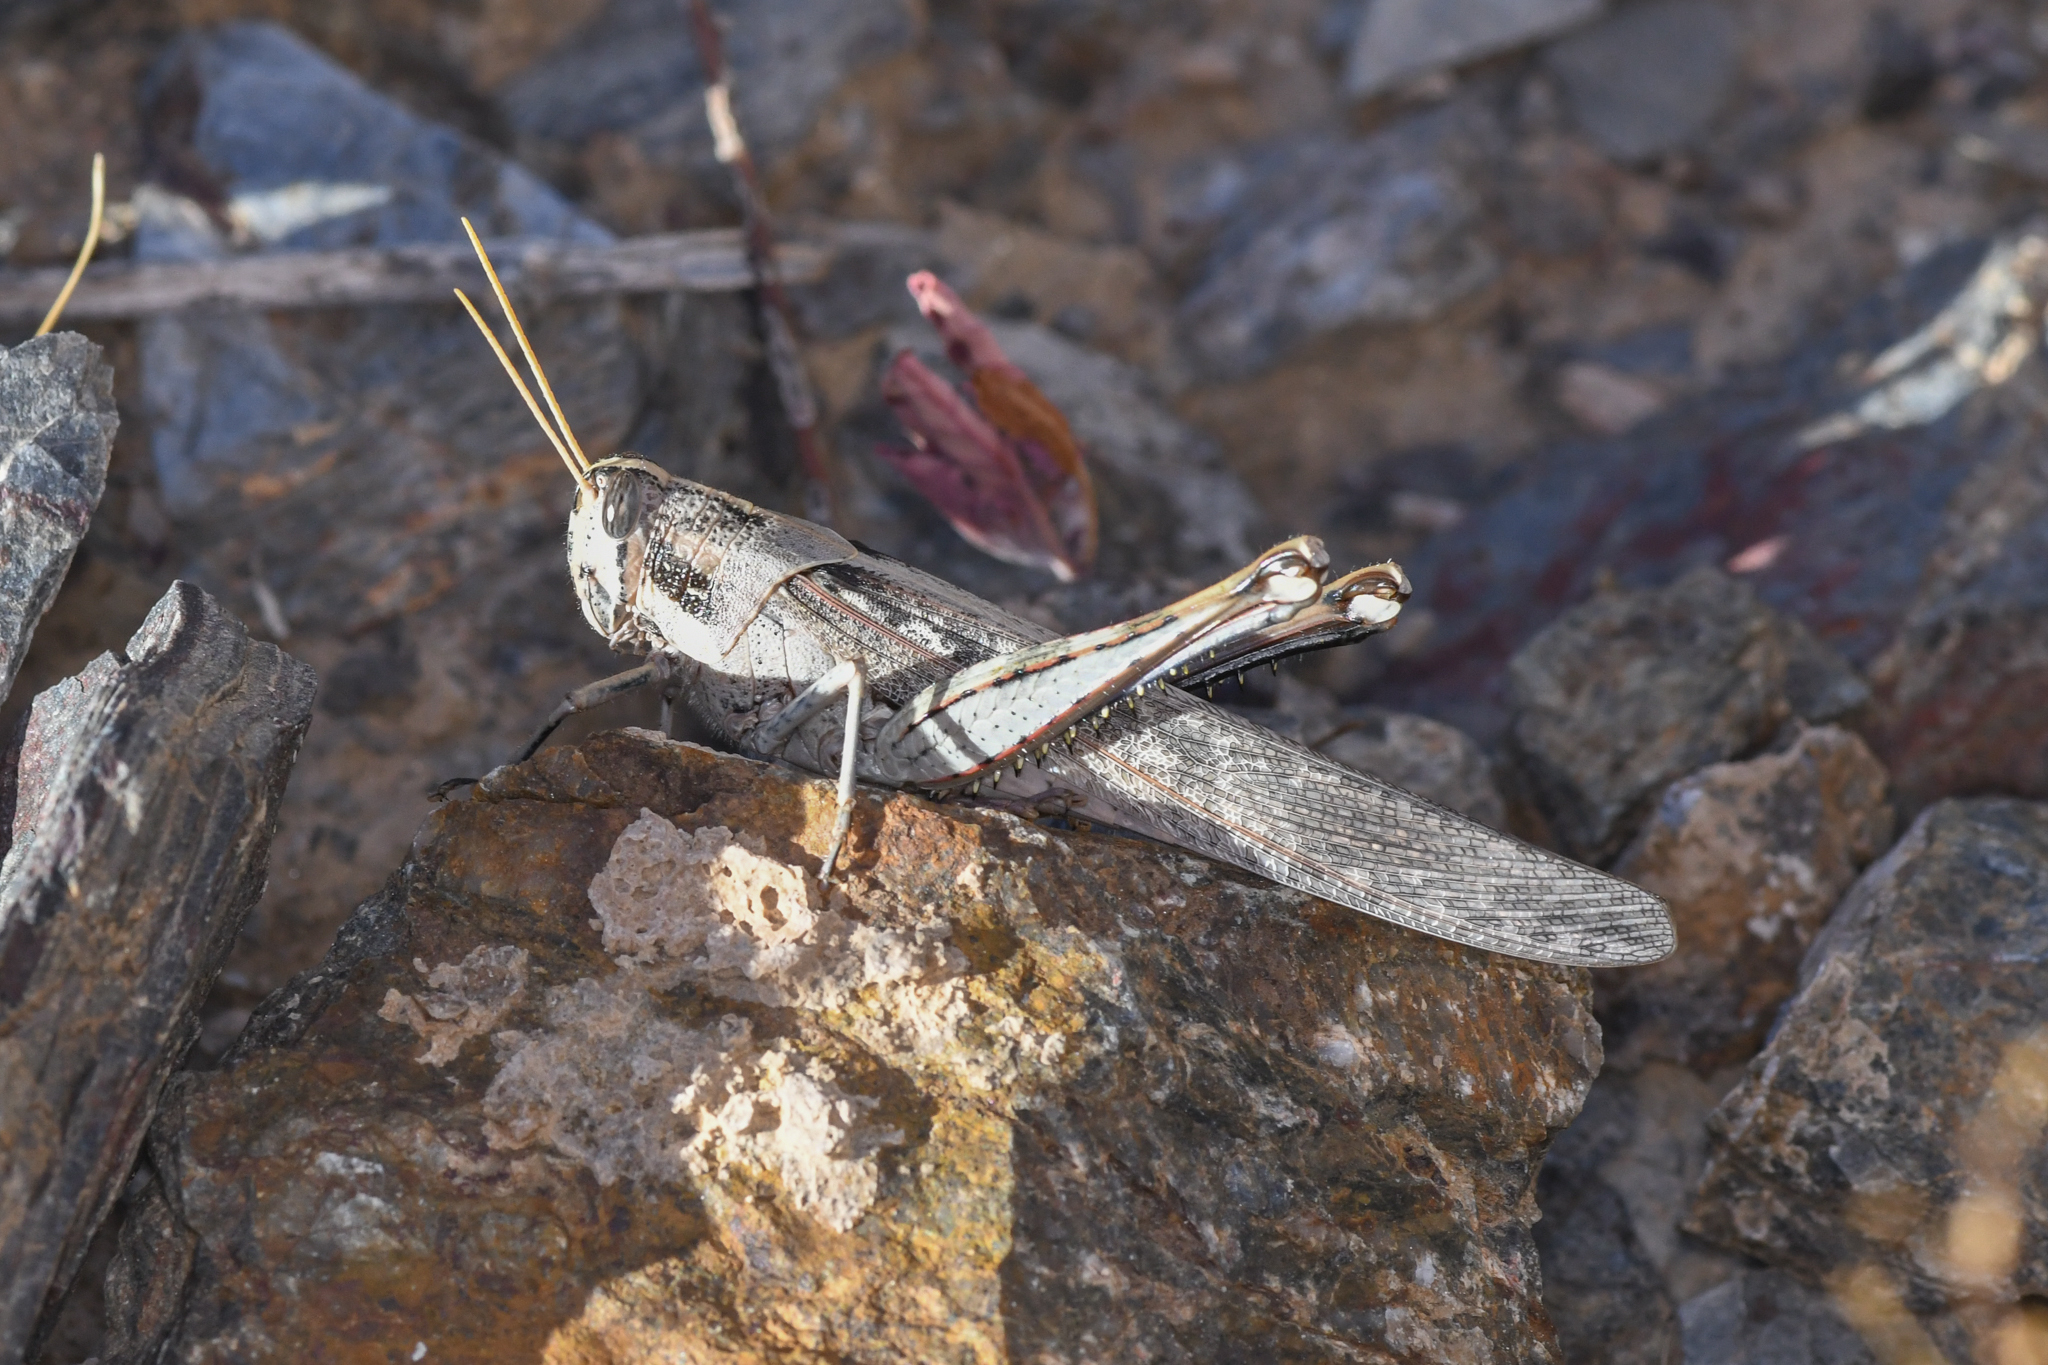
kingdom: Animalia
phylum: Arthropoda
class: Insecta
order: Orthoptera
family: Acrididae
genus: Schistocerca
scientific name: Schistocerca nitens
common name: Vagrant grasshopper
